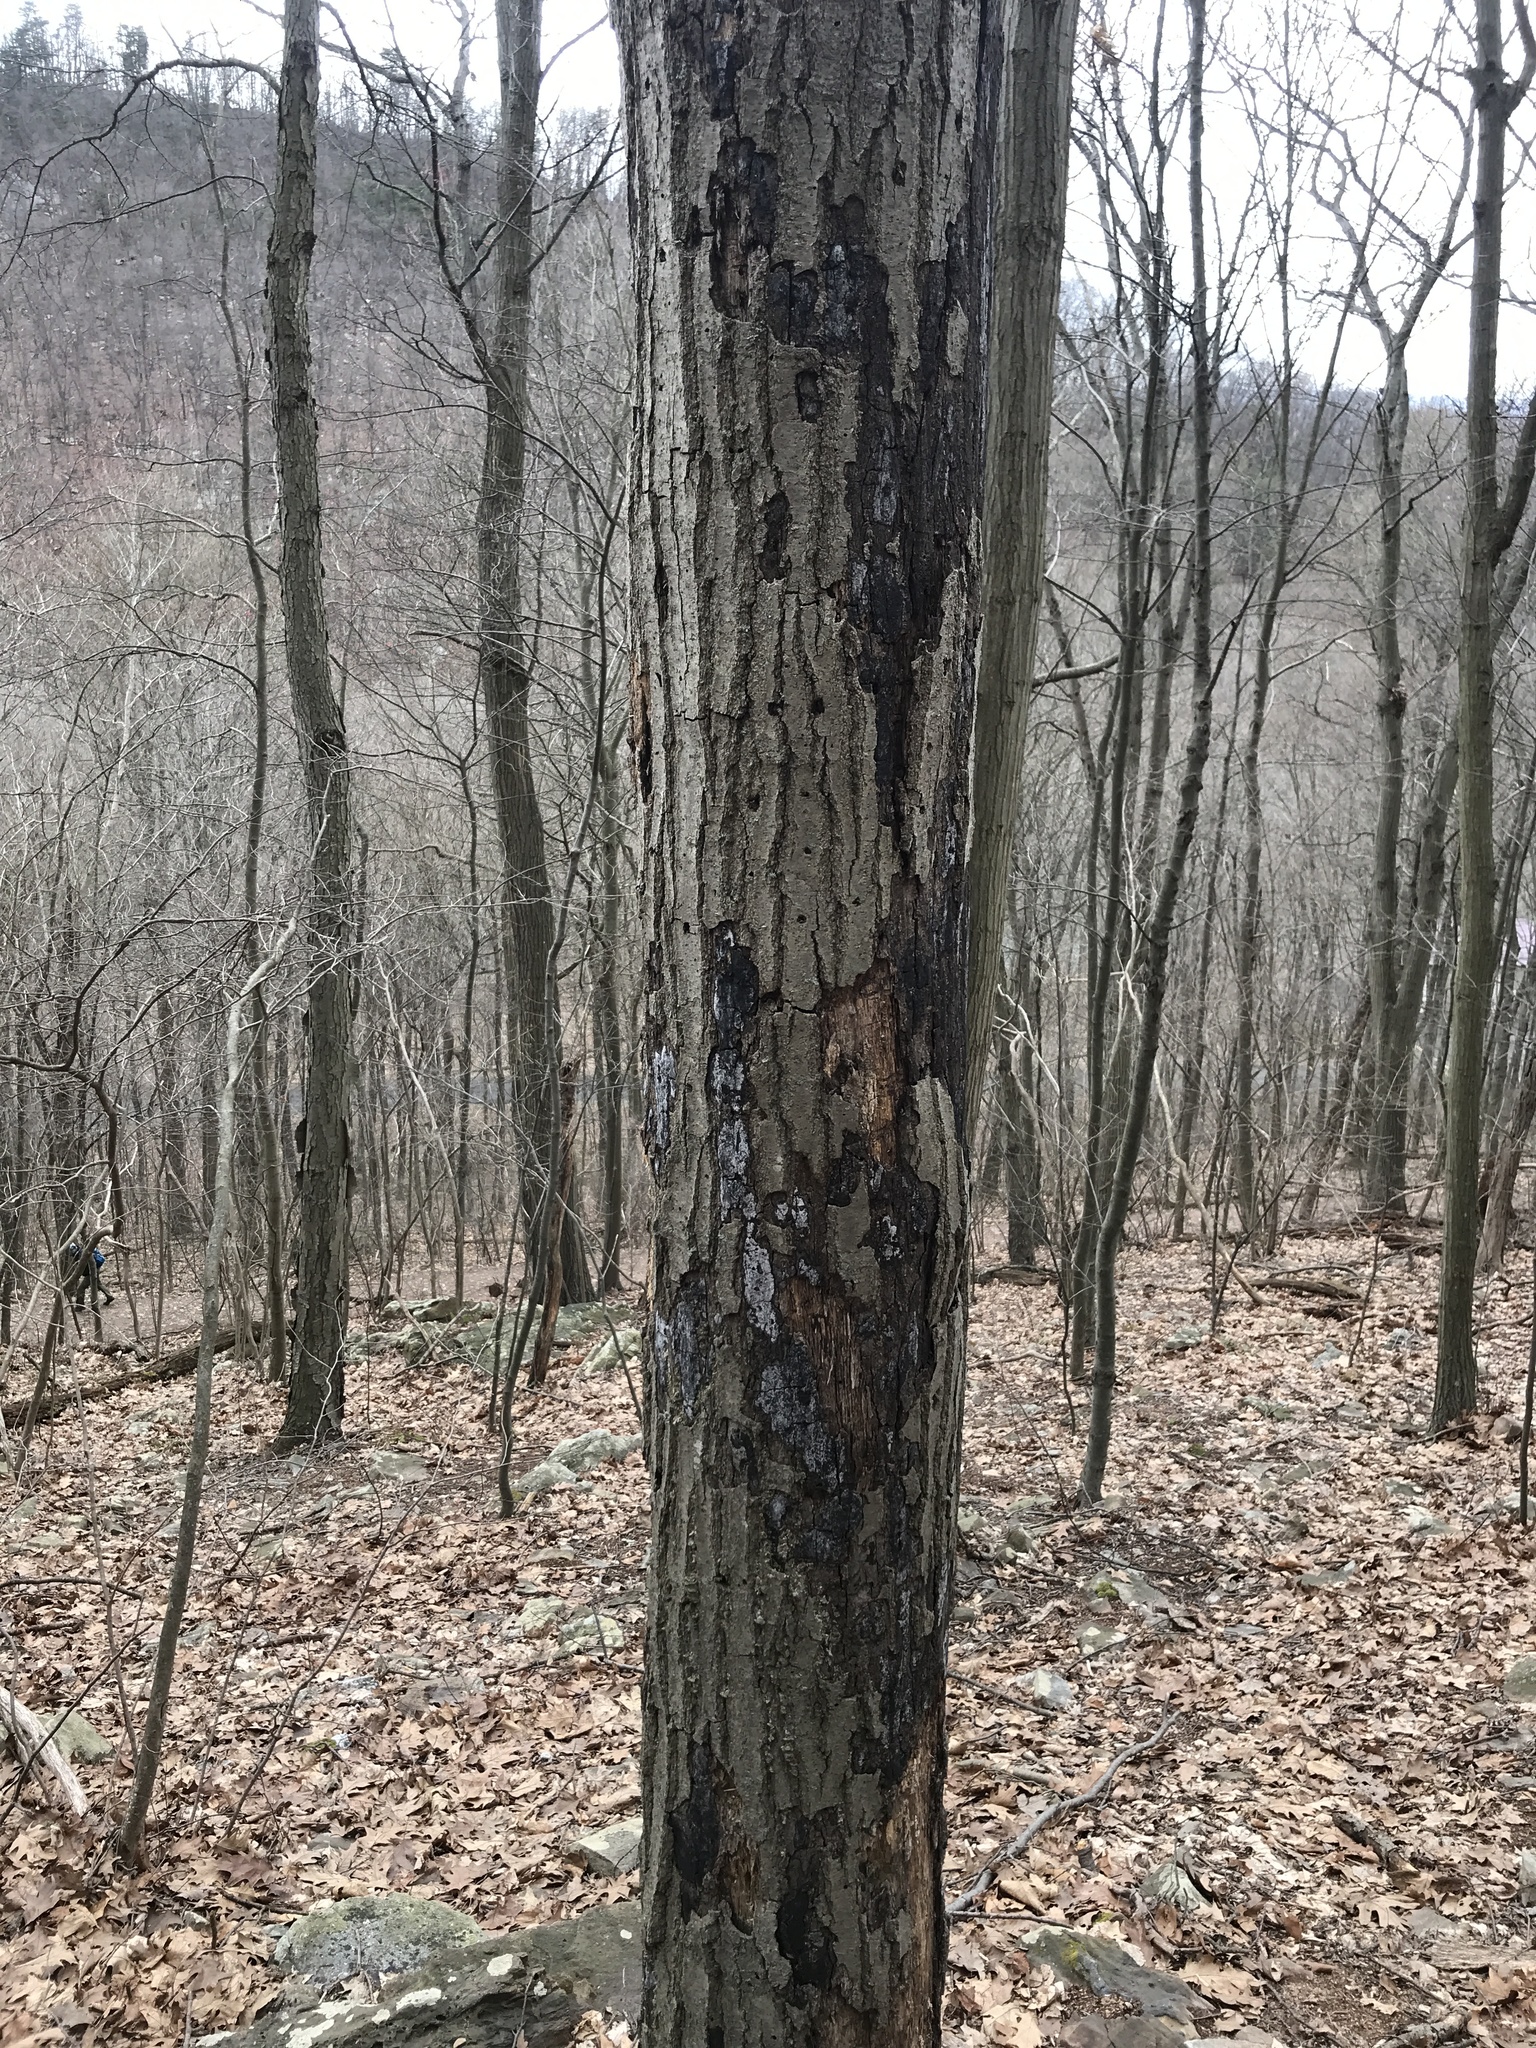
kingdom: Fungi
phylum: Ascomycota
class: Sordariomycetes
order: Xylariales
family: Graphostromataceae
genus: Biscogniauxia
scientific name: Biscogniauxia atropunctata
